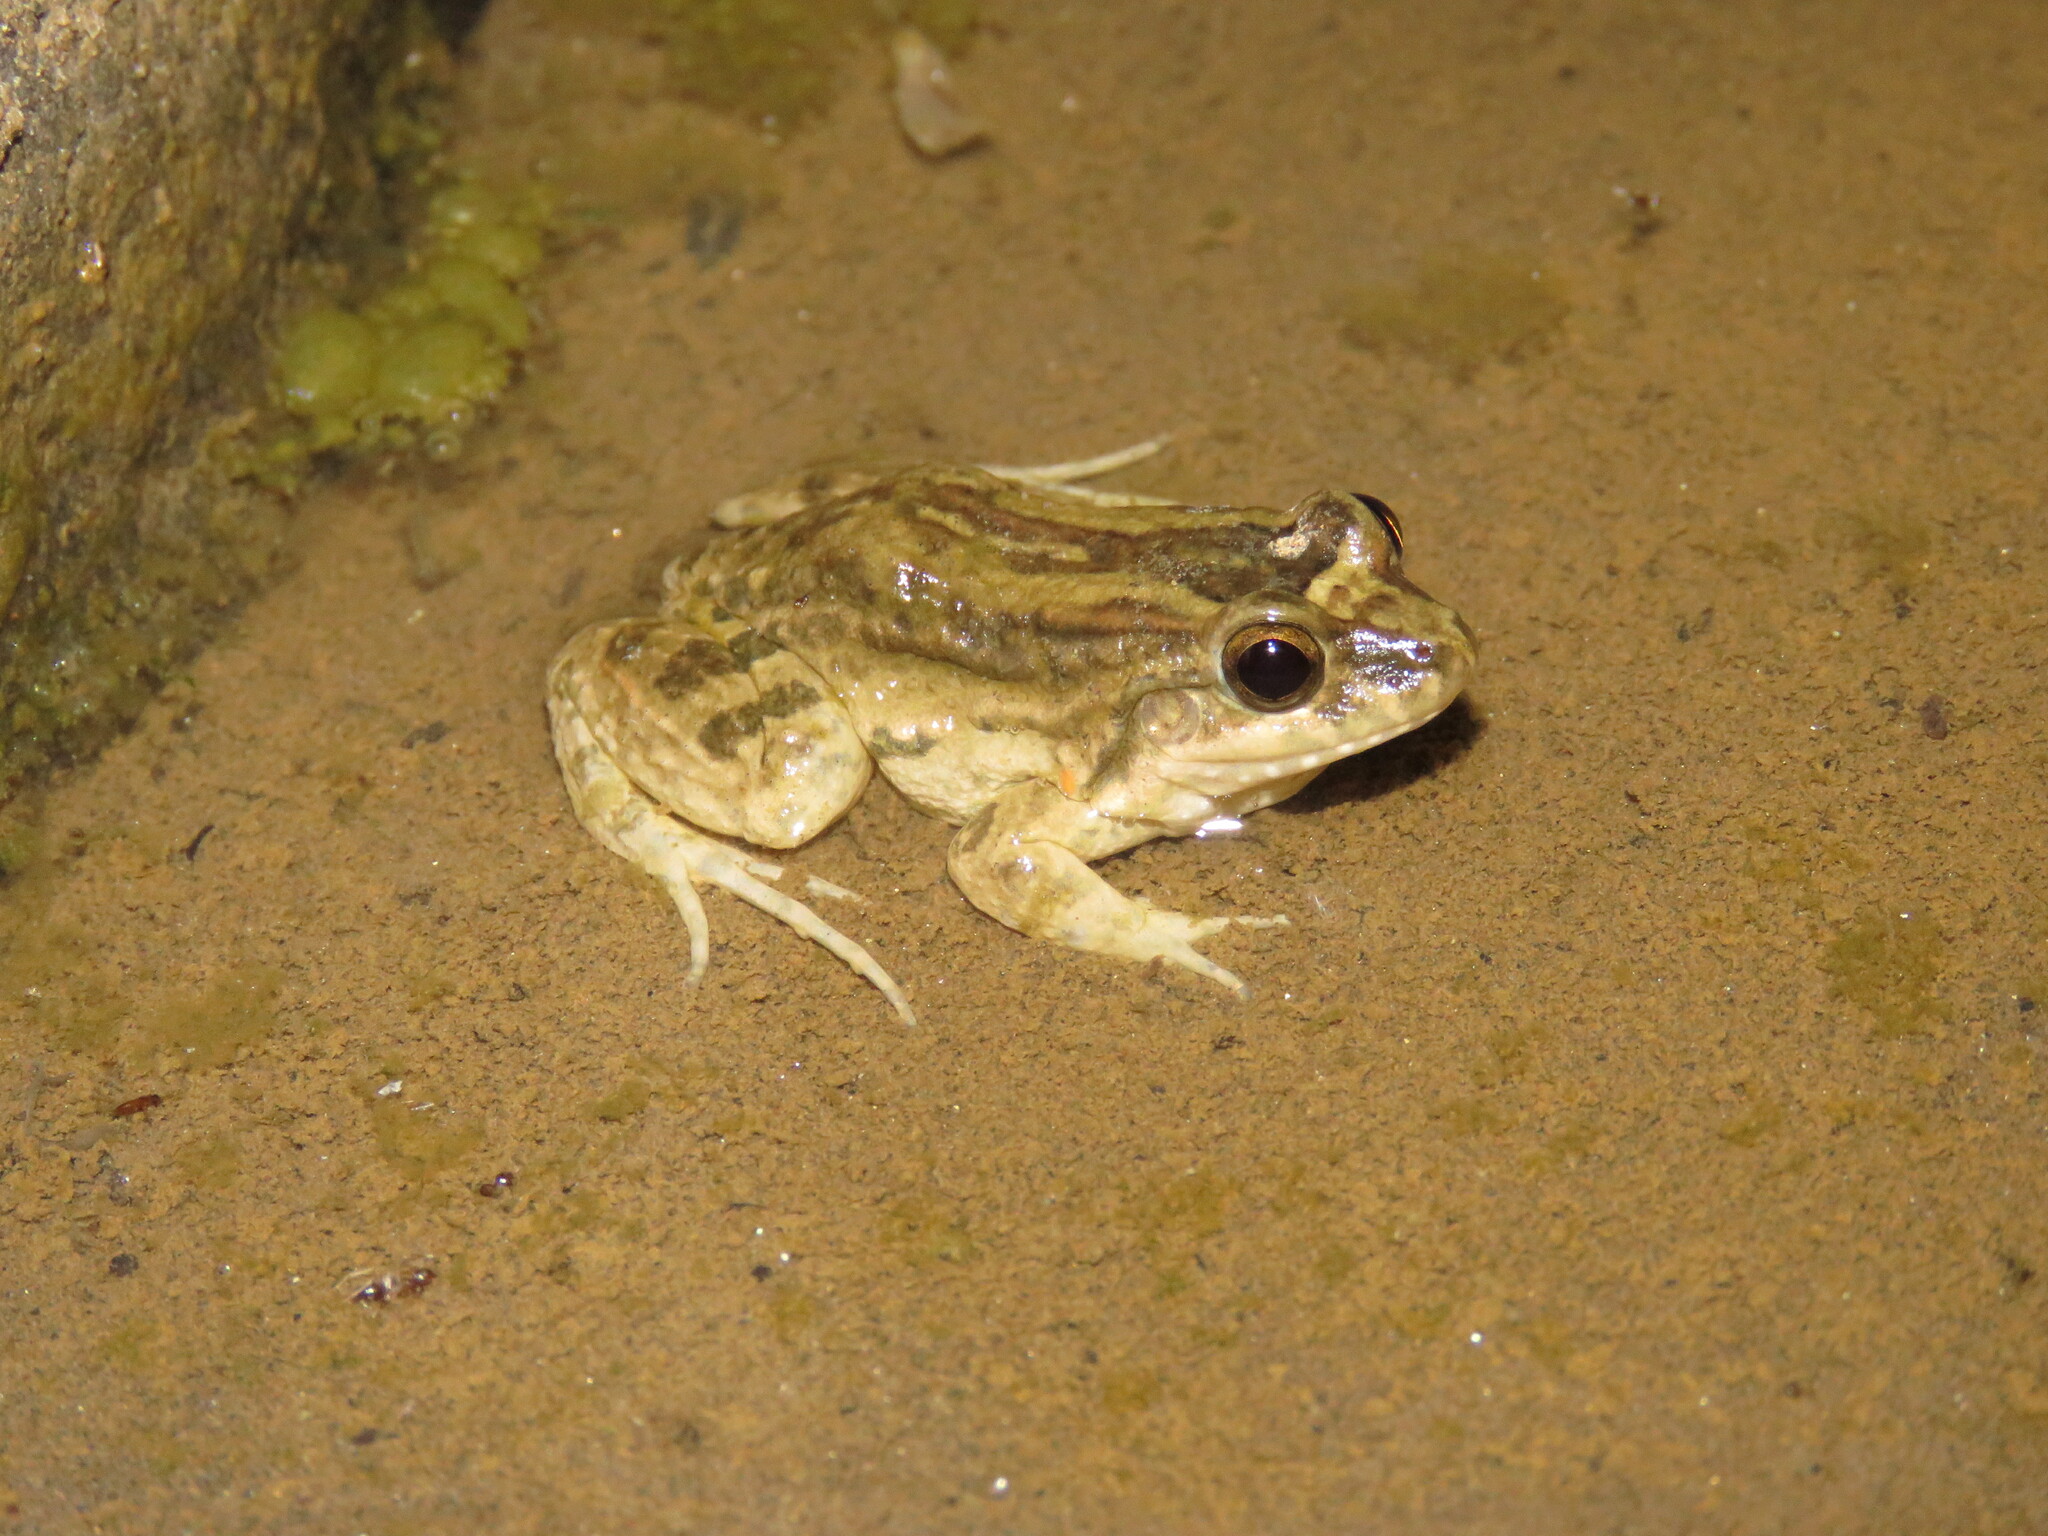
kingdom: Animalia
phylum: Chordata
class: Amphibia
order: Anura
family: Leptodactylidae
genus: Leptodactylus
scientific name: Leptodactylus petersii
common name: Peters' thin-toed frog
